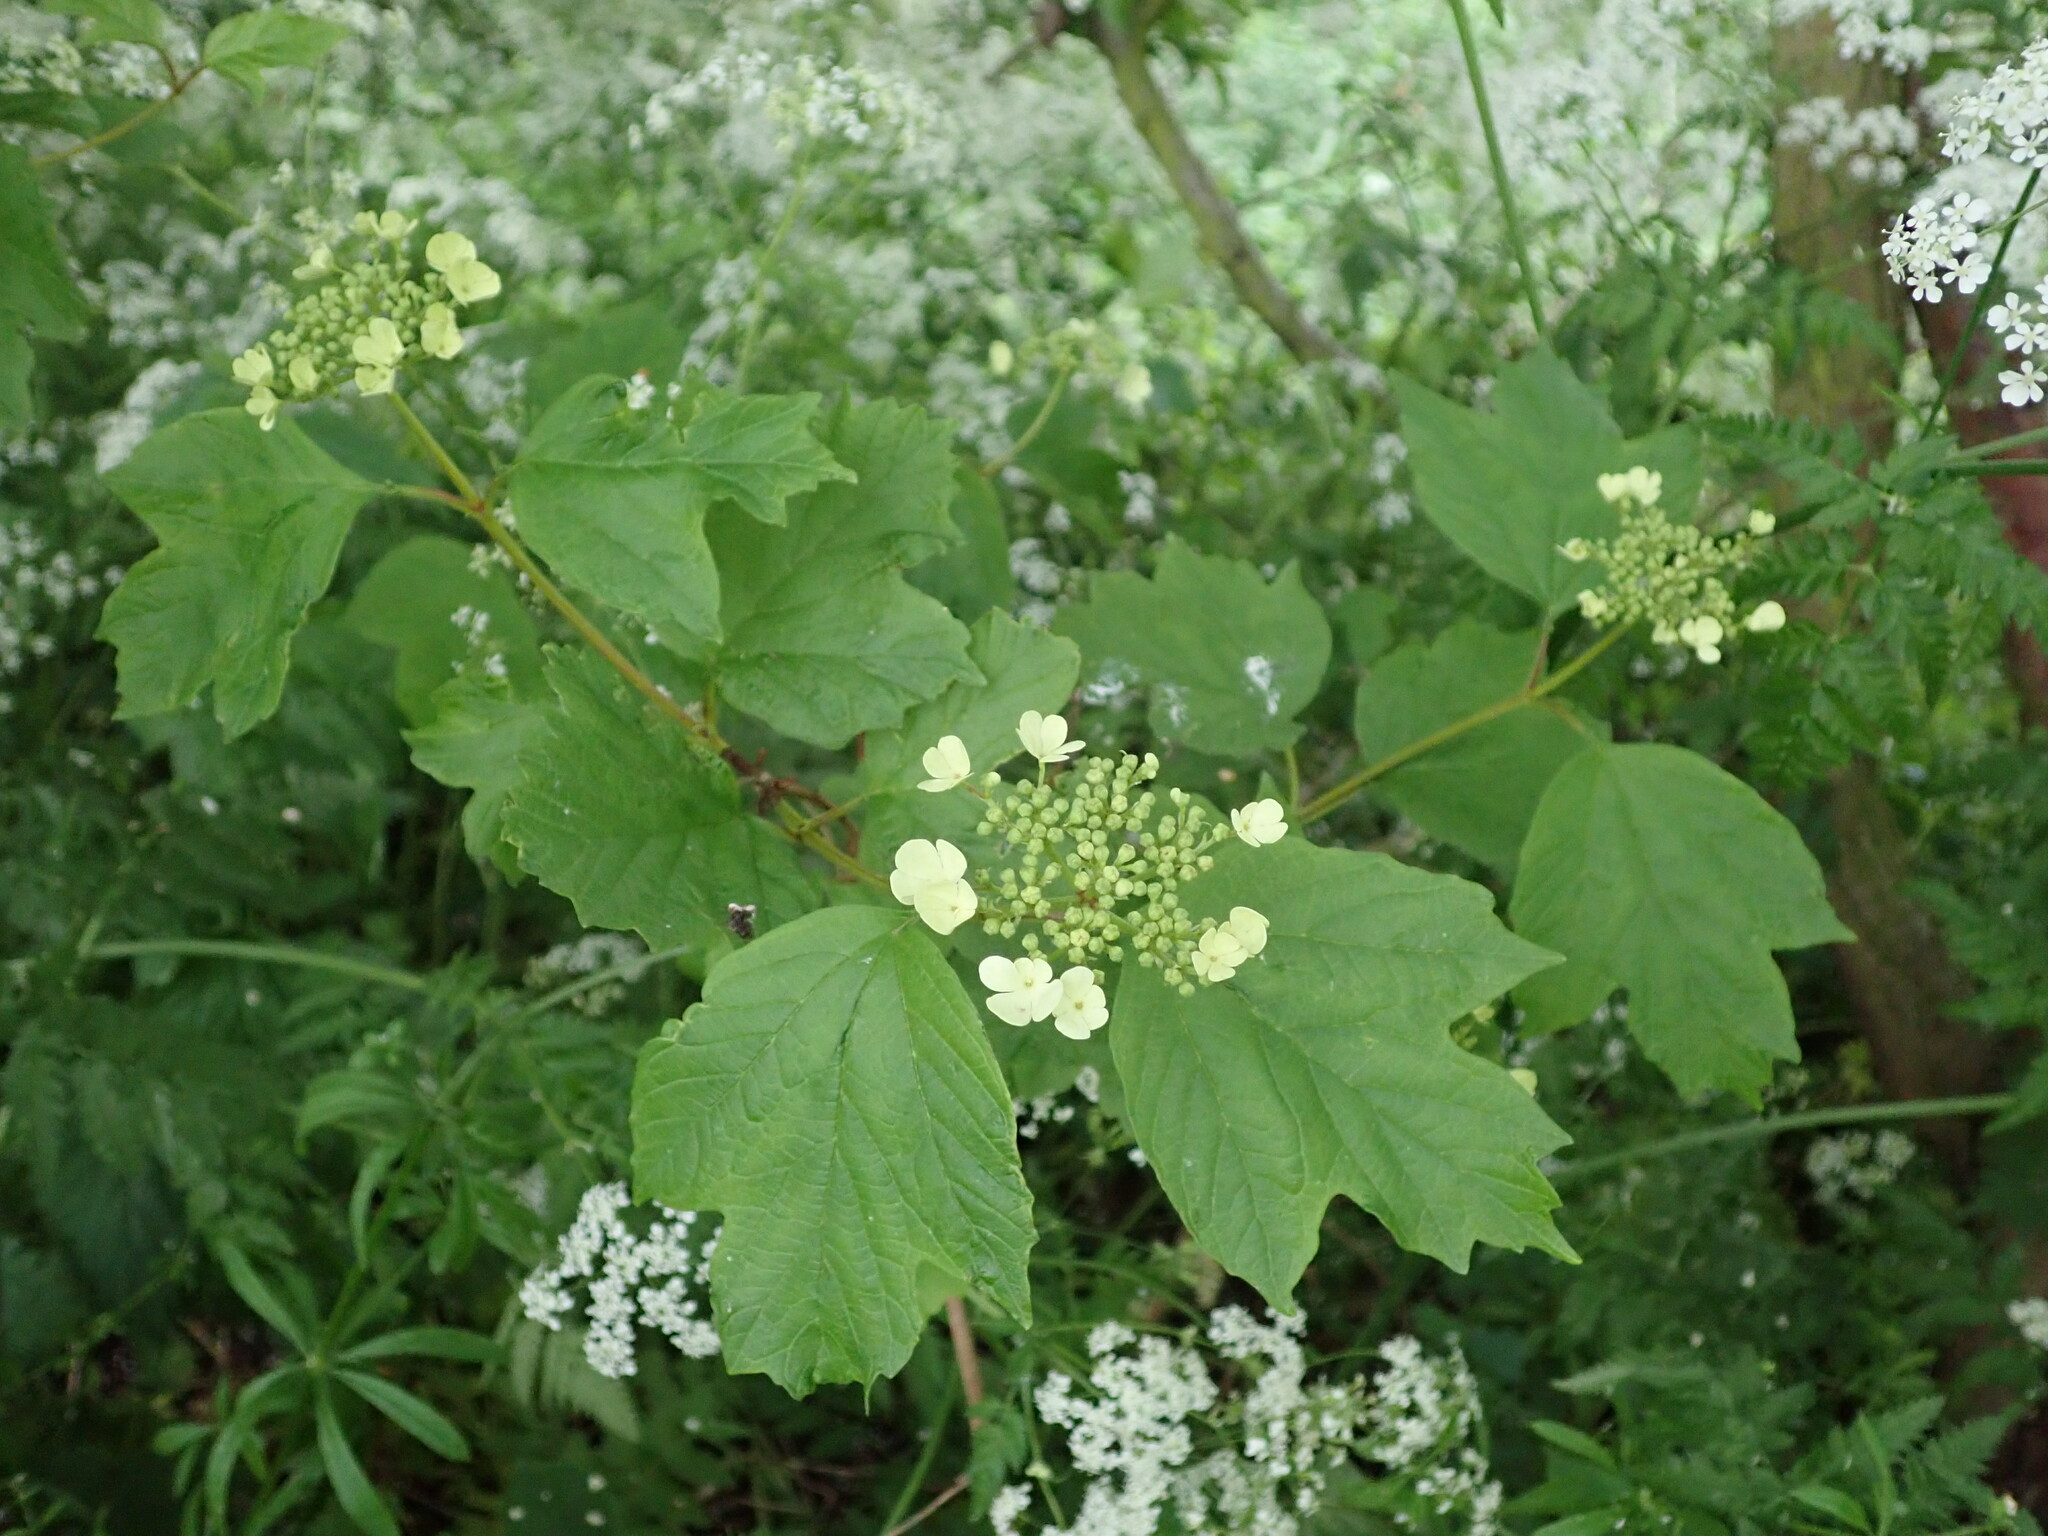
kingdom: Plantae
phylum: Tracheophyta
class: Magnoliopsida
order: Dipsacales
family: Viburnaceae
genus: Viburnum
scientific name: Viburnum opulus
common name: Guelder-rose
